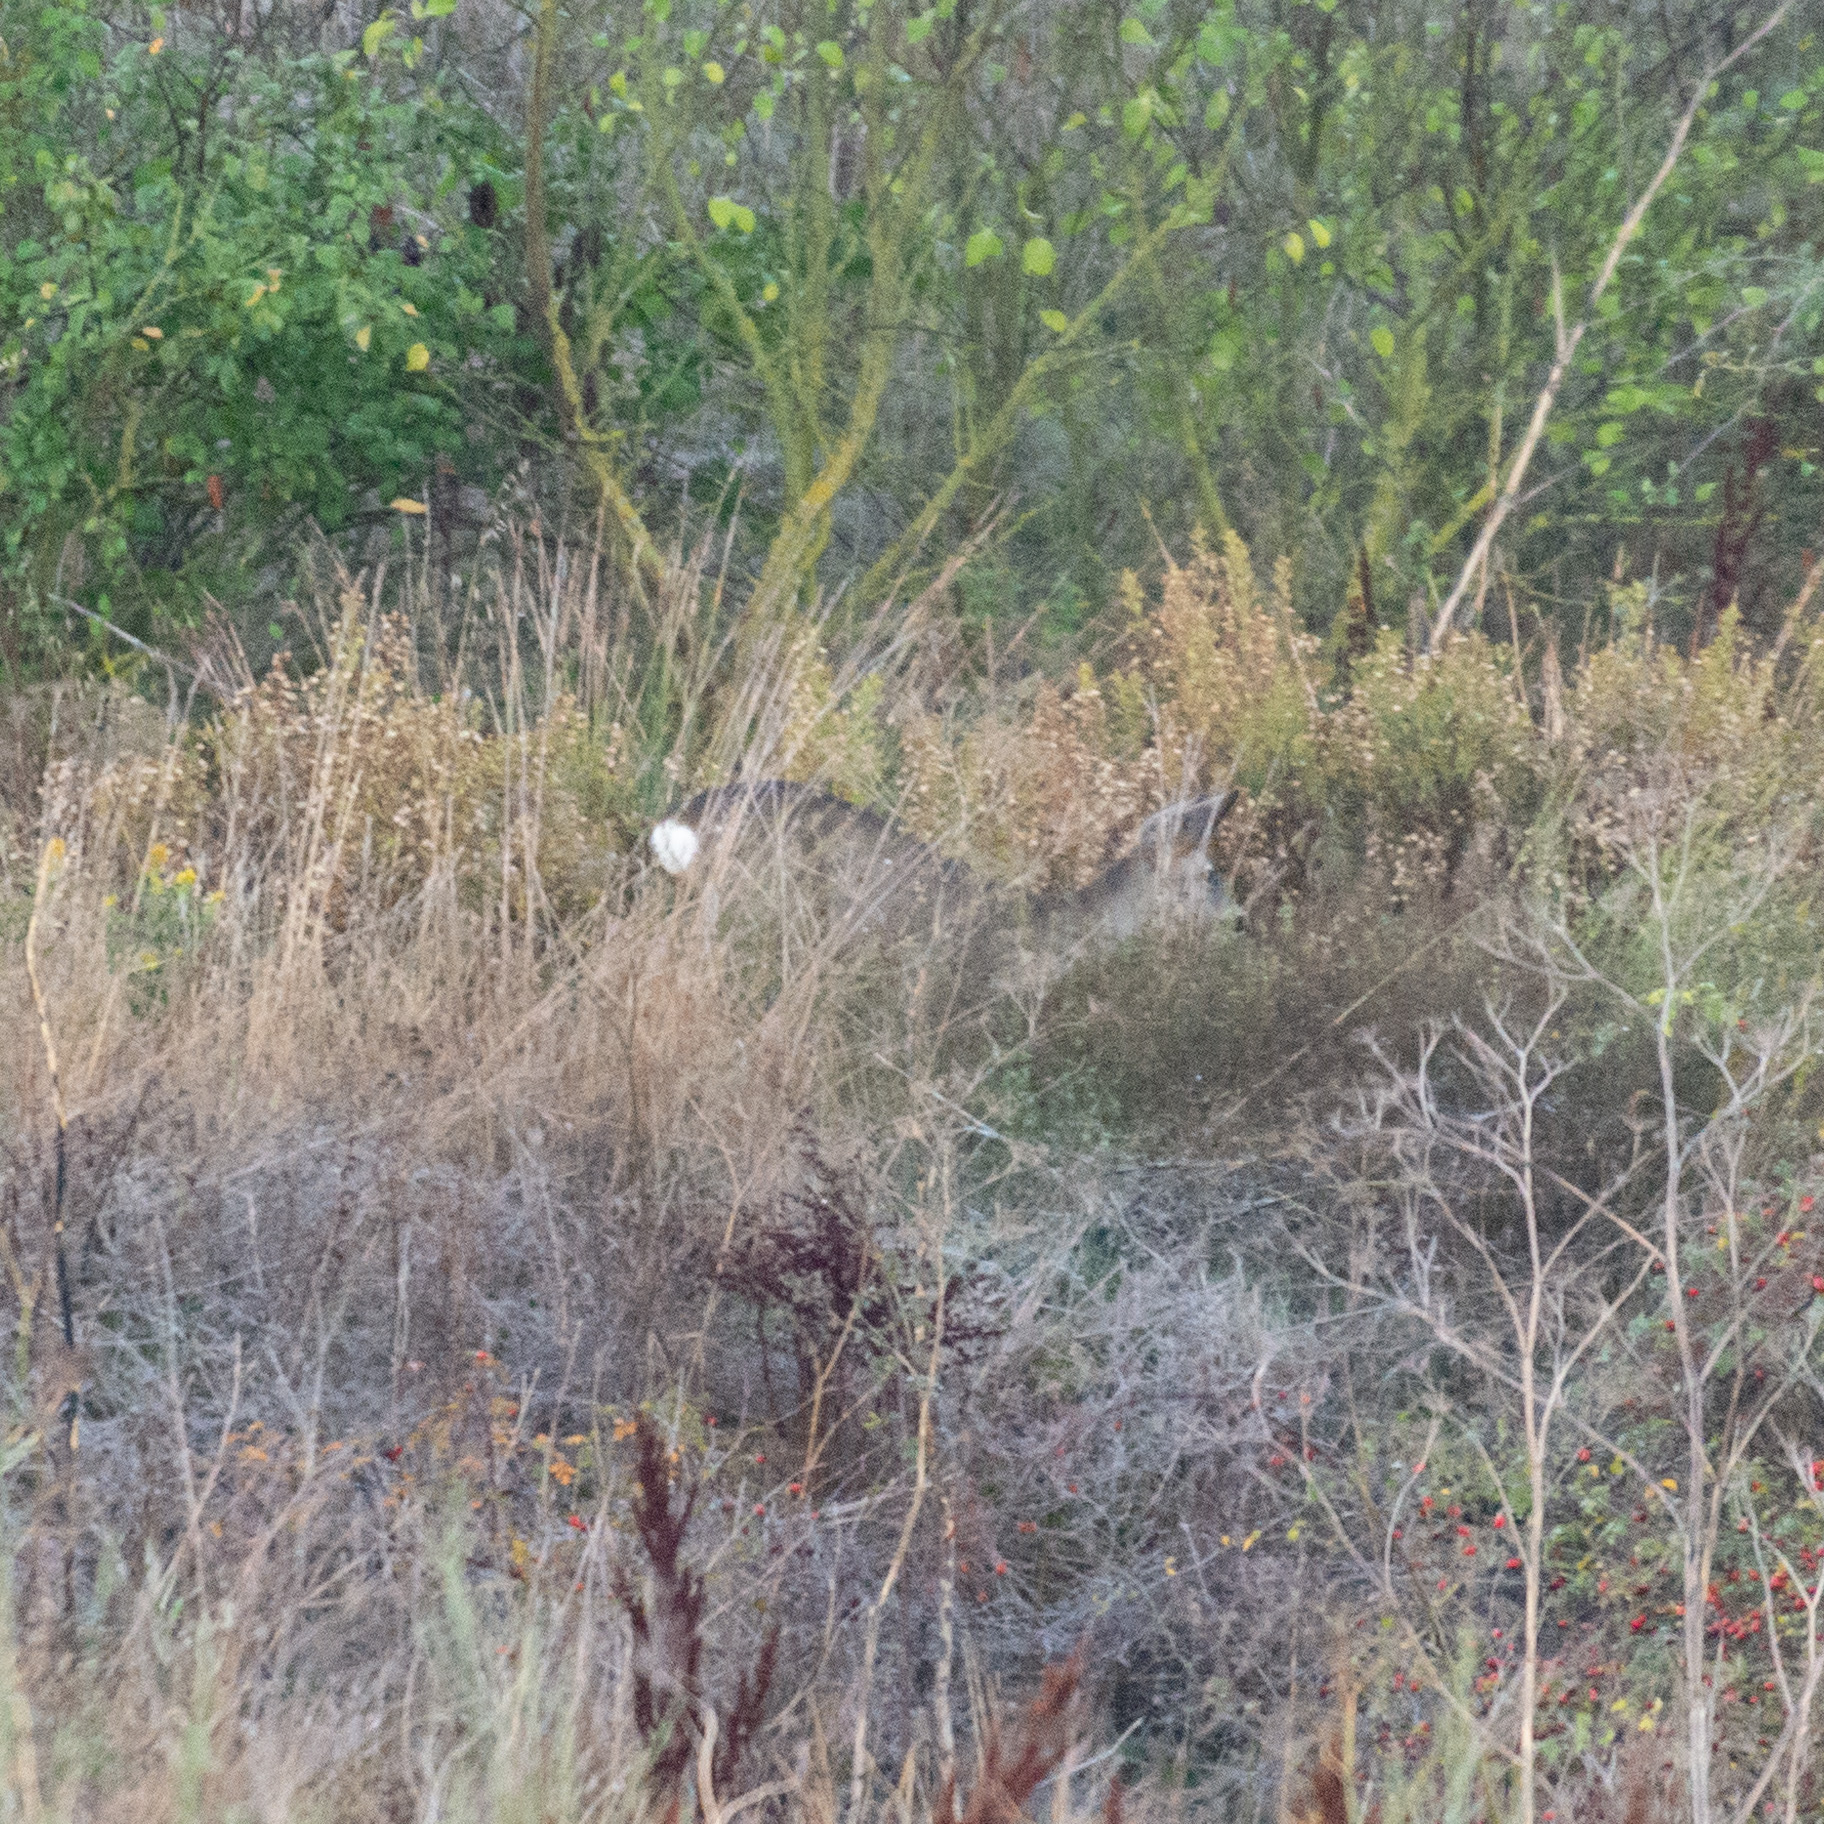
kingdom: Animalia
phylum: Chordata
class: Mammalia
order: Artiodactyla
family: Cervidae
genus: Capreolus
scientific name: Capreolus capreolus
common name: Western roe deer
